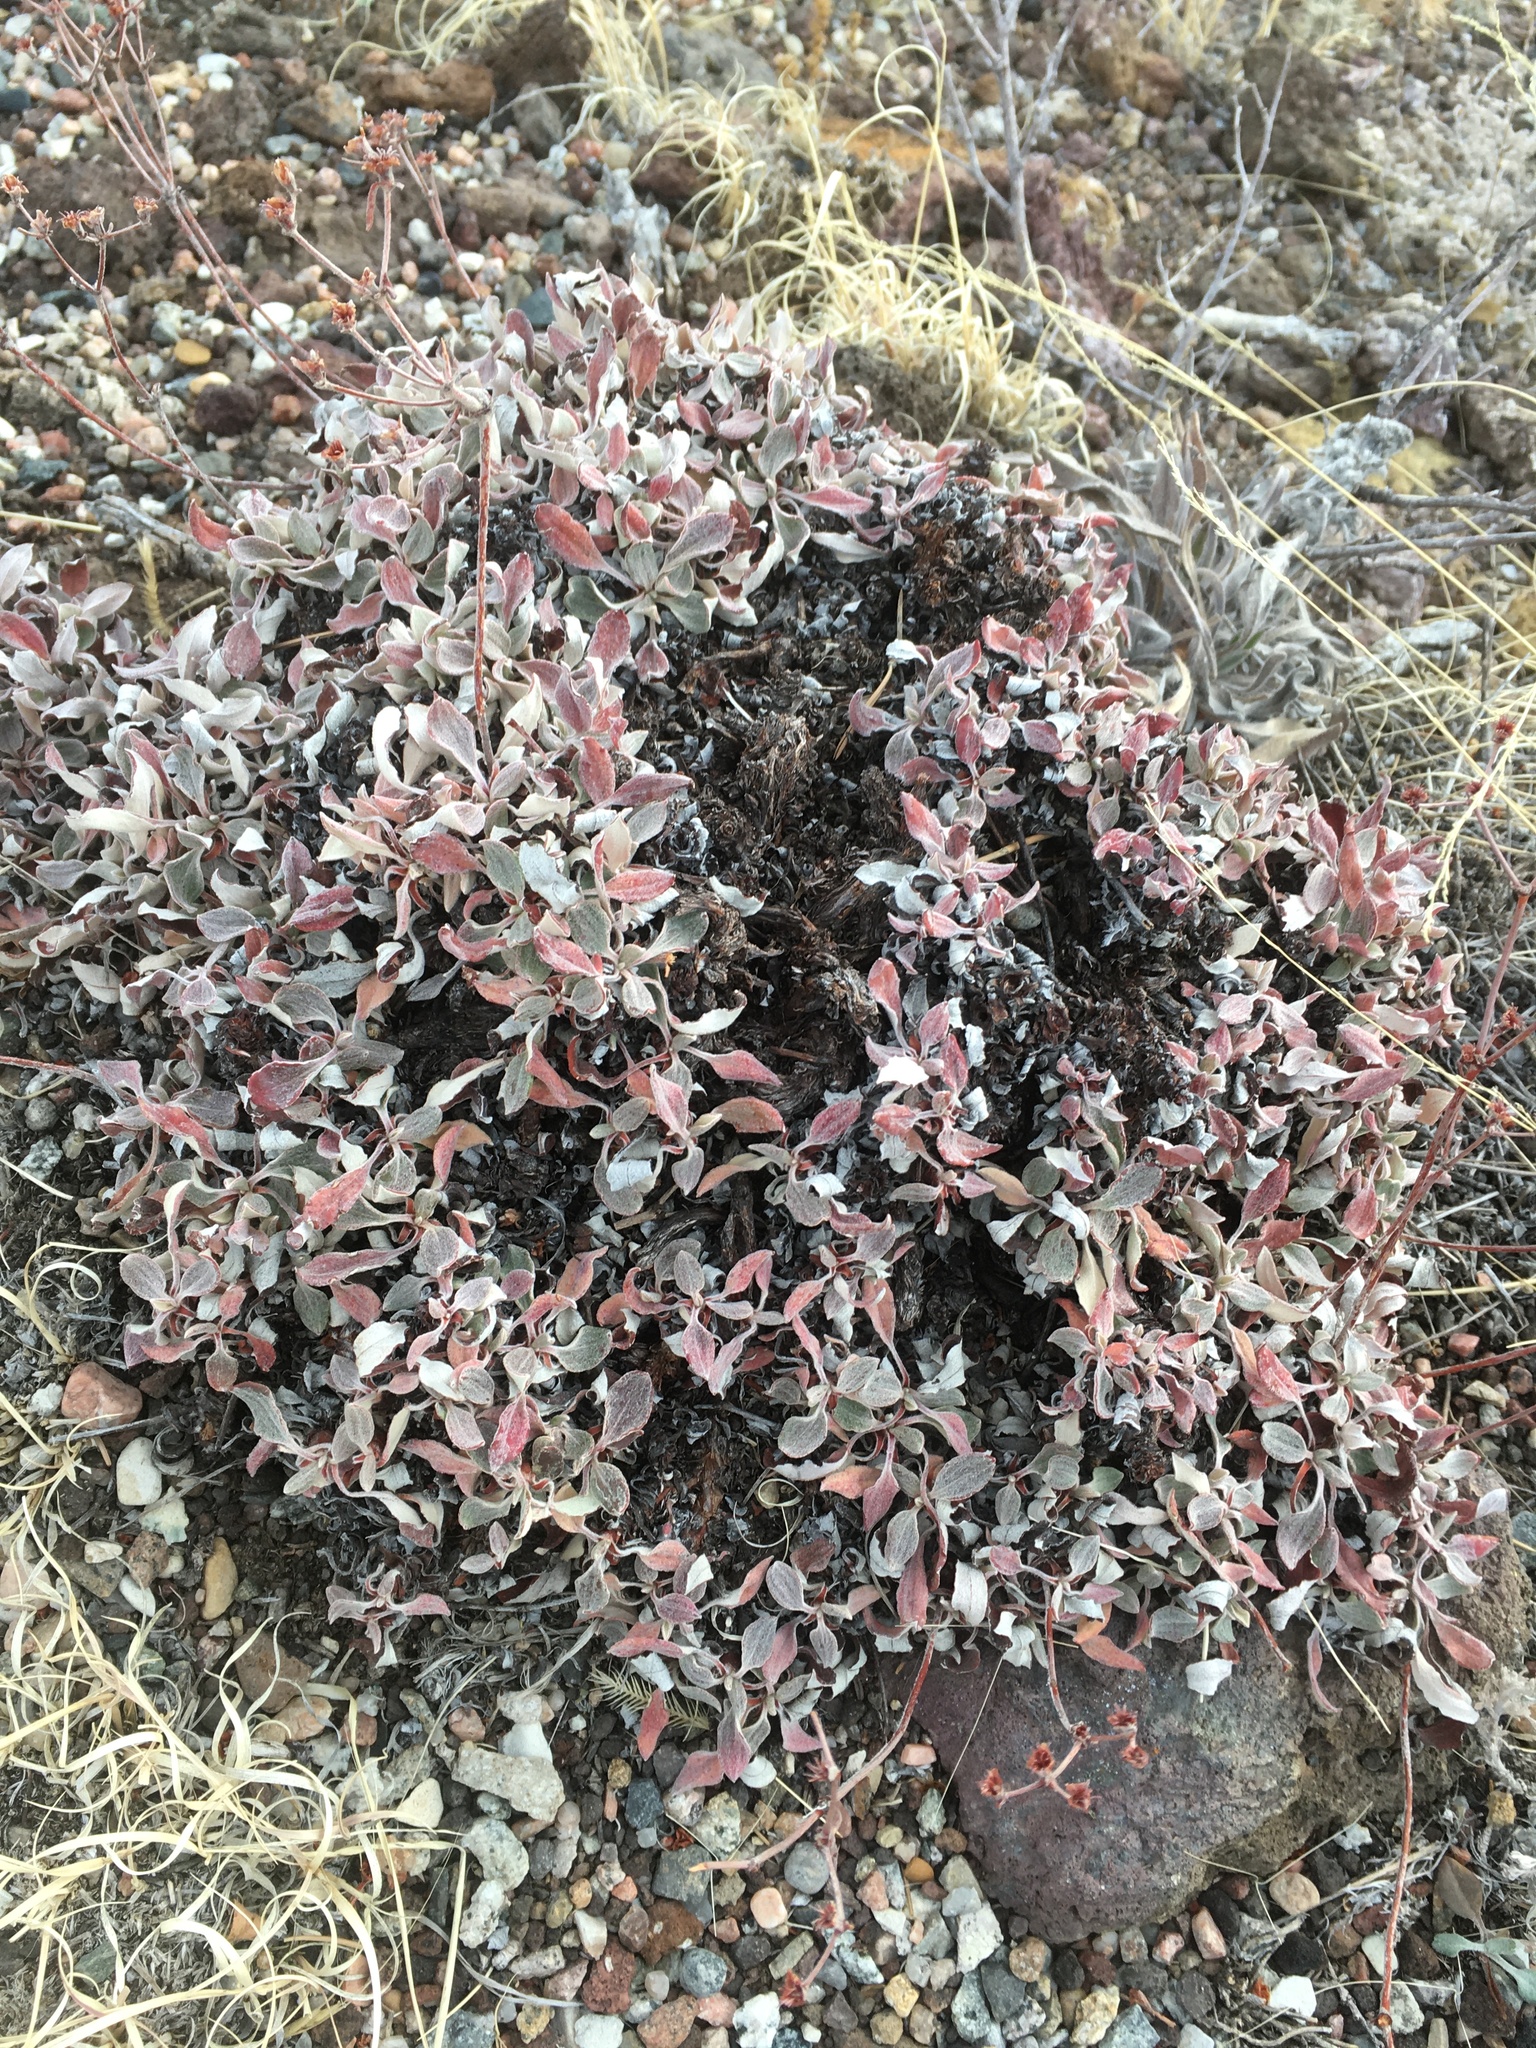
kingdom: Plantae
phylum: Tracheophyta
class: Magnoliopsida
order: Caryophyllales
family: Polygonaceae
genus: Eriogonum
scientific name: Eriogonum jamesii
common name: Antelope-sage
